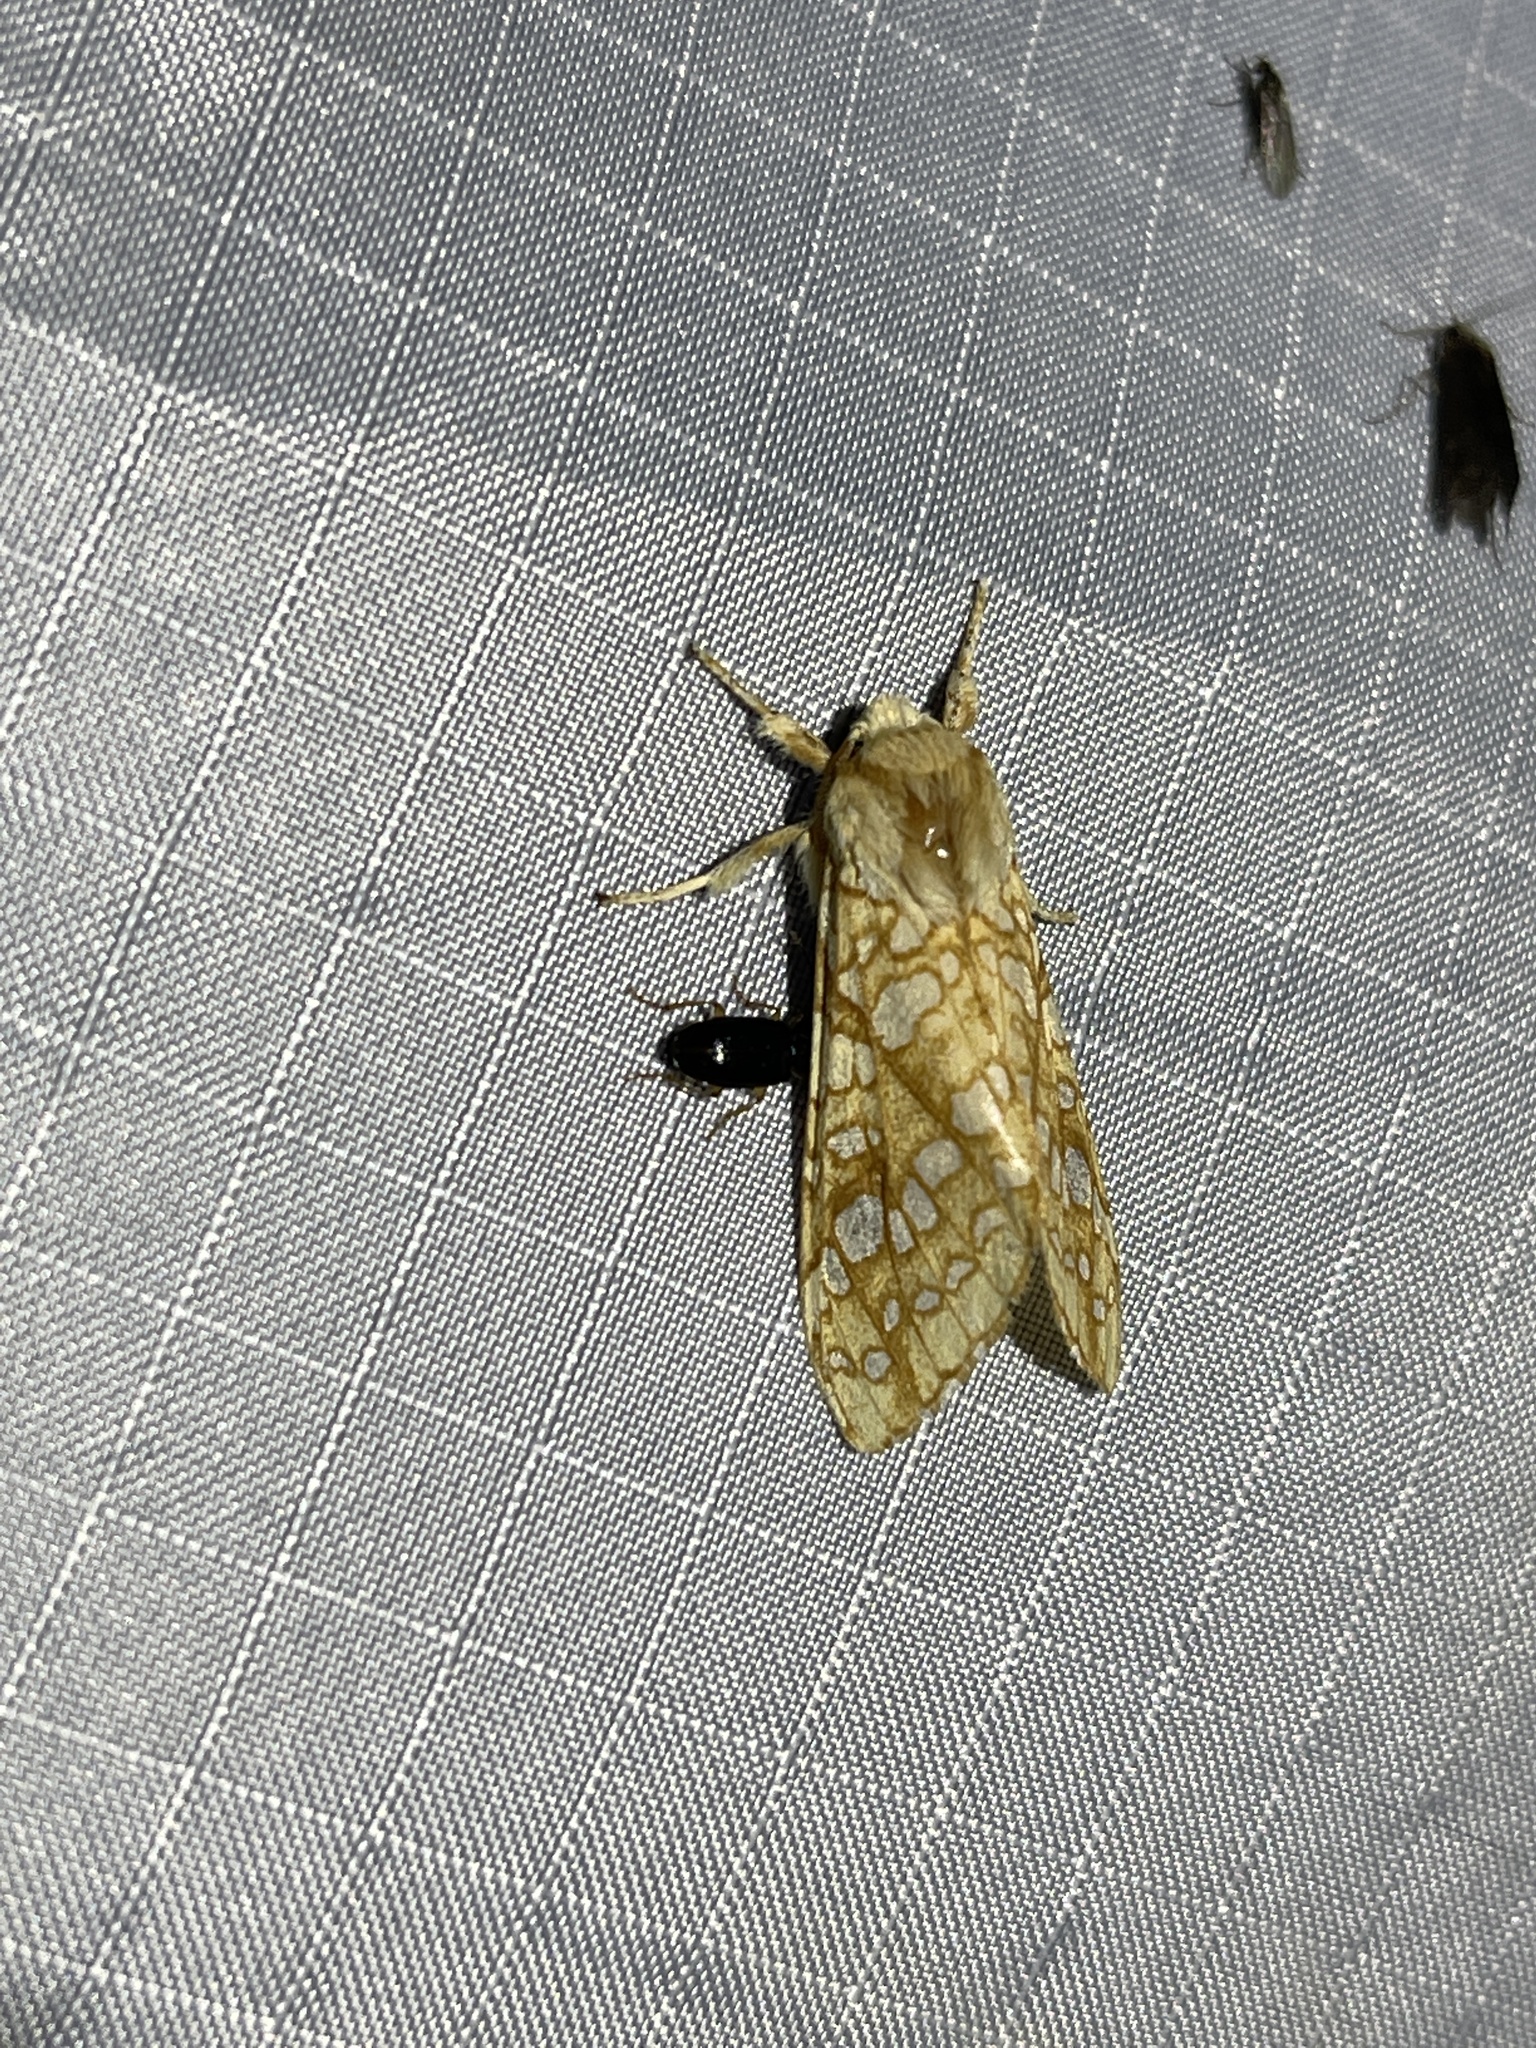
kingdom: Animalia
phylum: Arthropoda
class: Insecta
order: Lepidoptera
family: Erebidae
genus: Lophocampa
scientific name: Lophocampa caryae
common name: Hickory tussock moth
